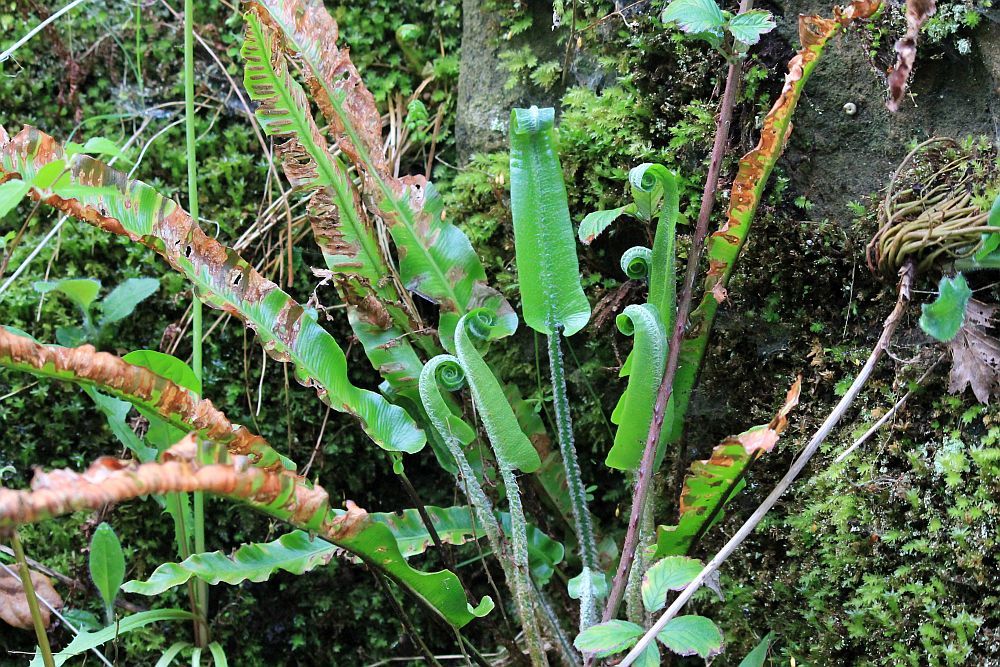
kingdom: Plantae
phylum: Tracheophyta
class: Polypodiopsida
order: Polypodiales
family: Aspleniaceae
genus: Asplenium
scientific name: Asplenium scolopendrium
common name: Hart's-tongue fern
